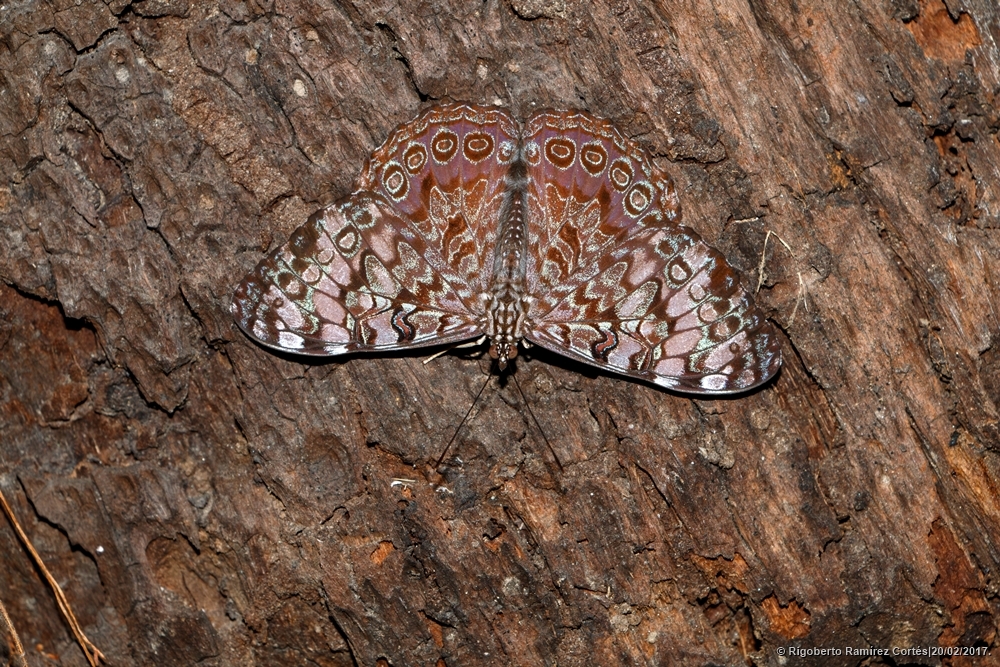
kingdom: Animalia
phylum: Arthropoda
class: Insecta
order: Lepidoptera
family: Nymphalidae
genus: Hamadryas
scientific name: Hamadryas guatemalena
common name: Guatemalan cracker
